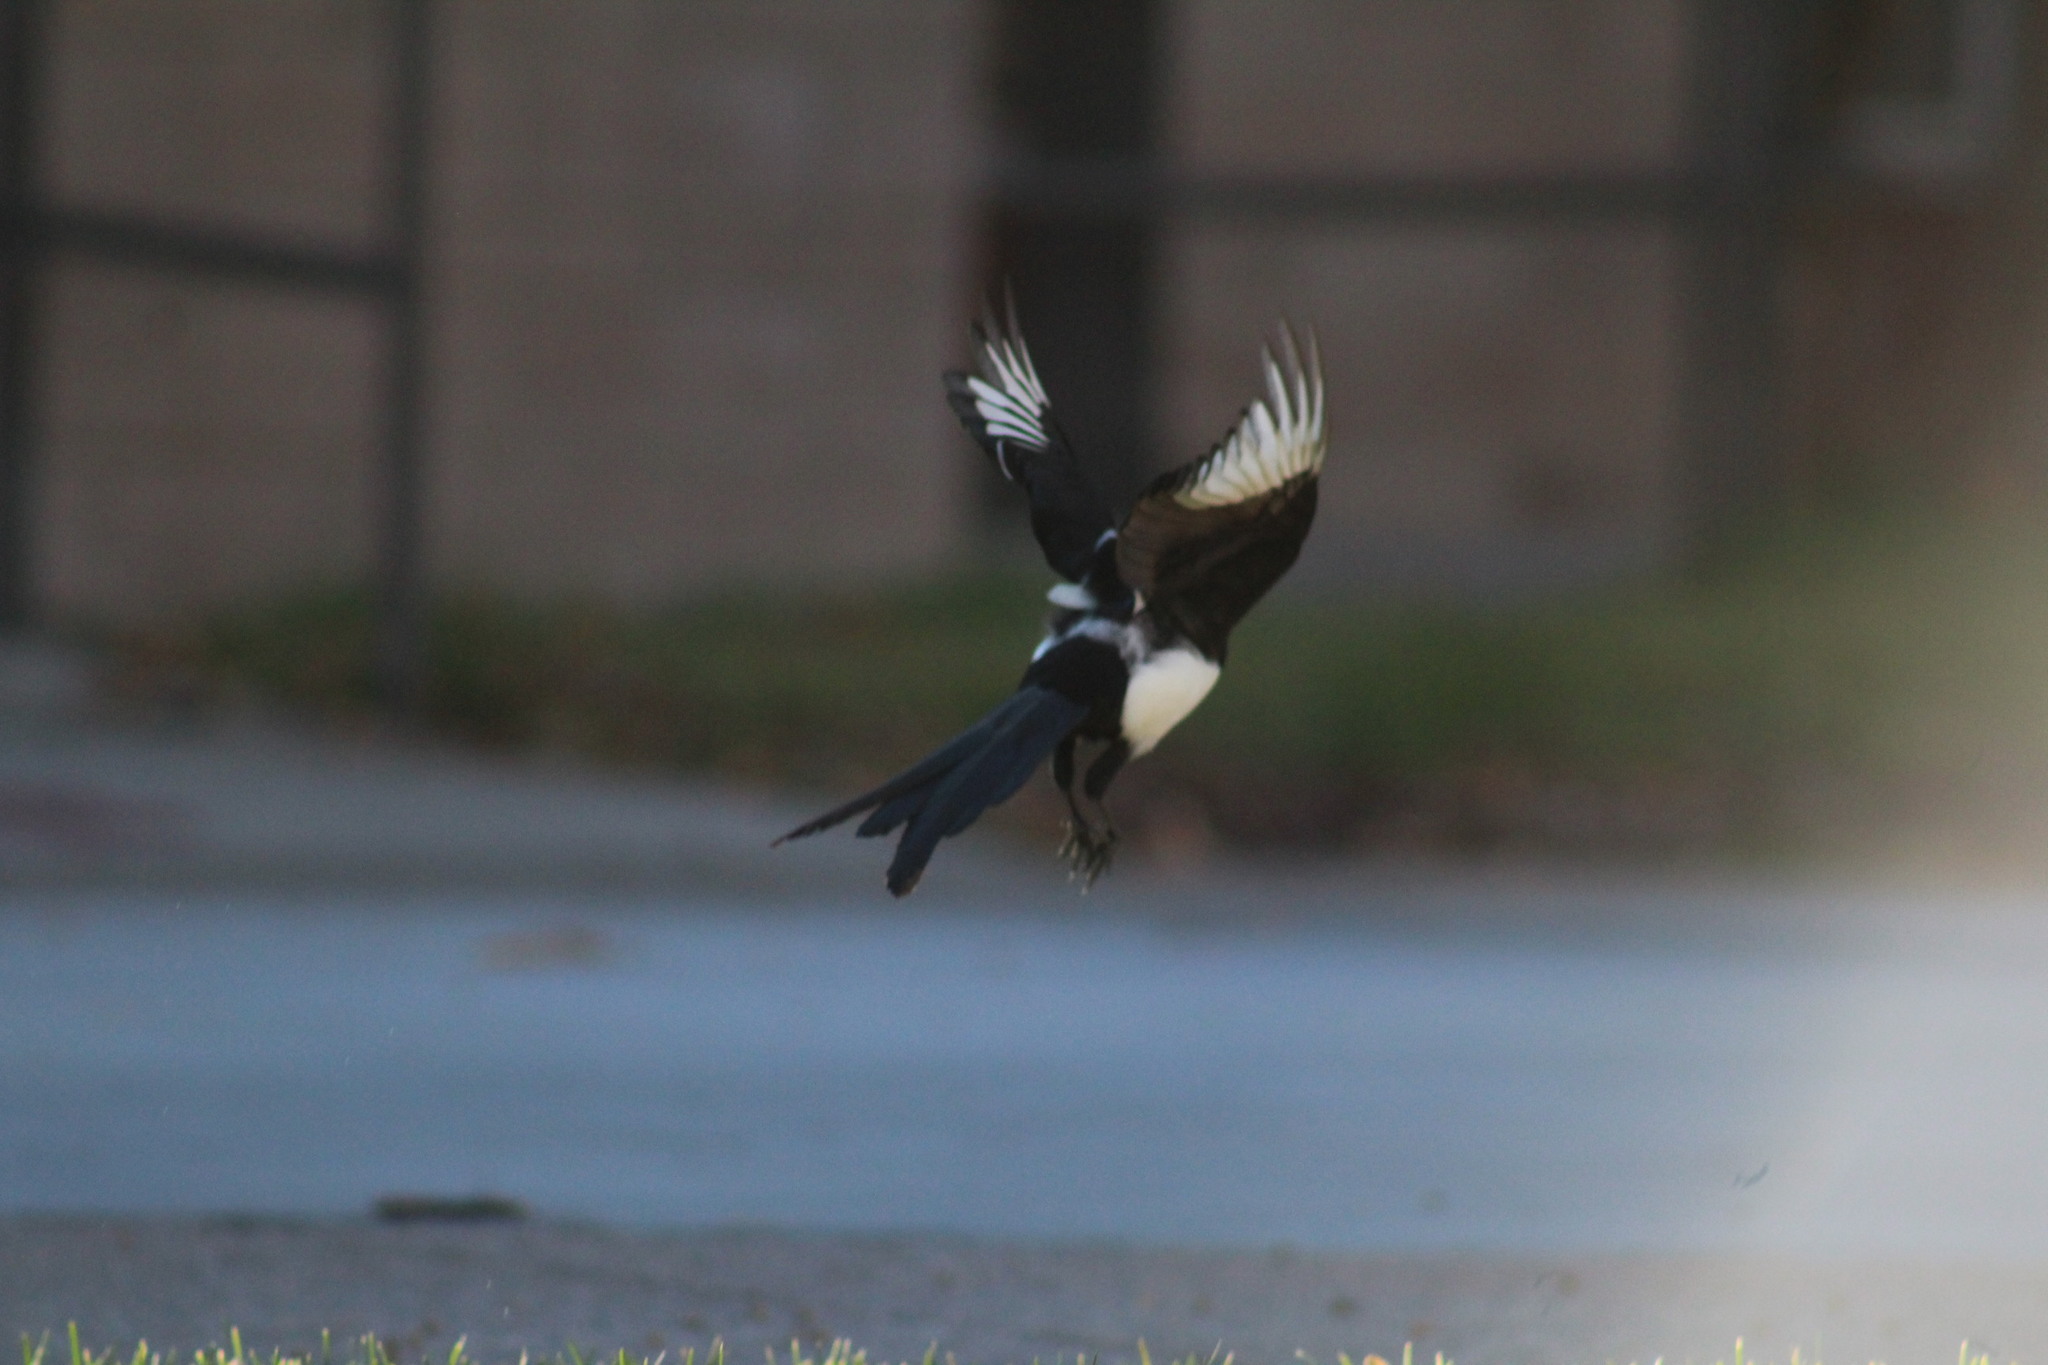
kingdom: Animalia
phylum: Chordata
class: Aves
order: Passeriformes
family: Corvidae
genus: Pica
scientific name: Pica hudsonia
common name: Black-billed magpie
